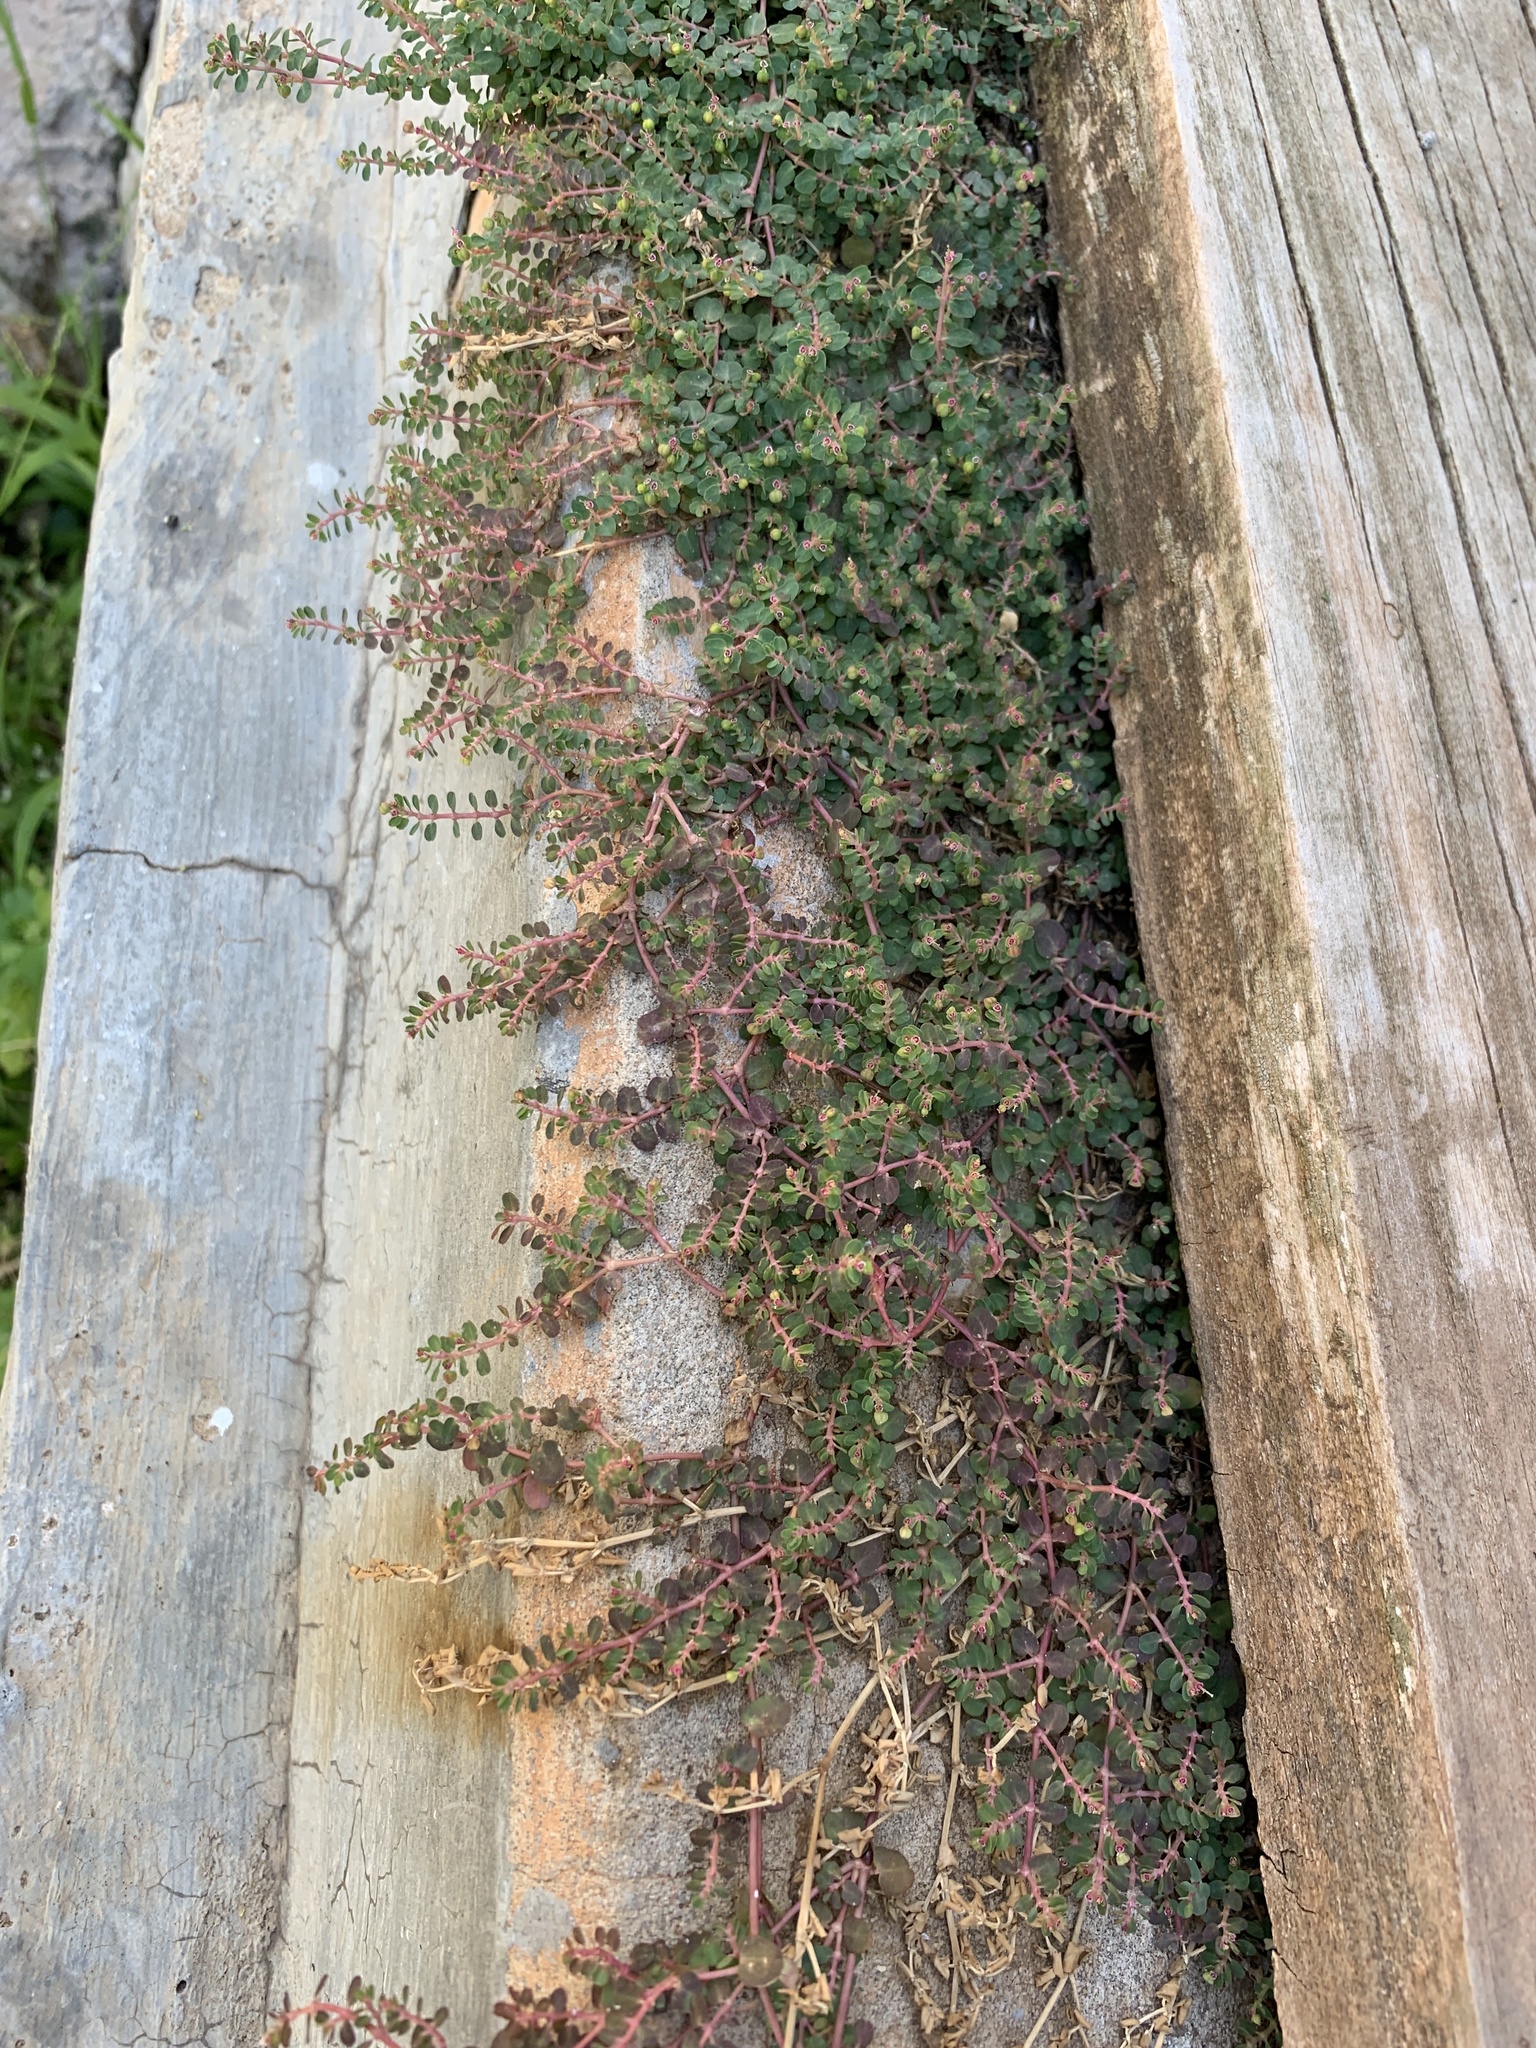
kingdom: Plantae
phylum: Tracheophyta
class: Magnoliopsida
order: Malpighiales
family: Euphorbiaceae
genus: Euphorbia
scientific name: Euphorbia serpens
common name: Matted sandmat
